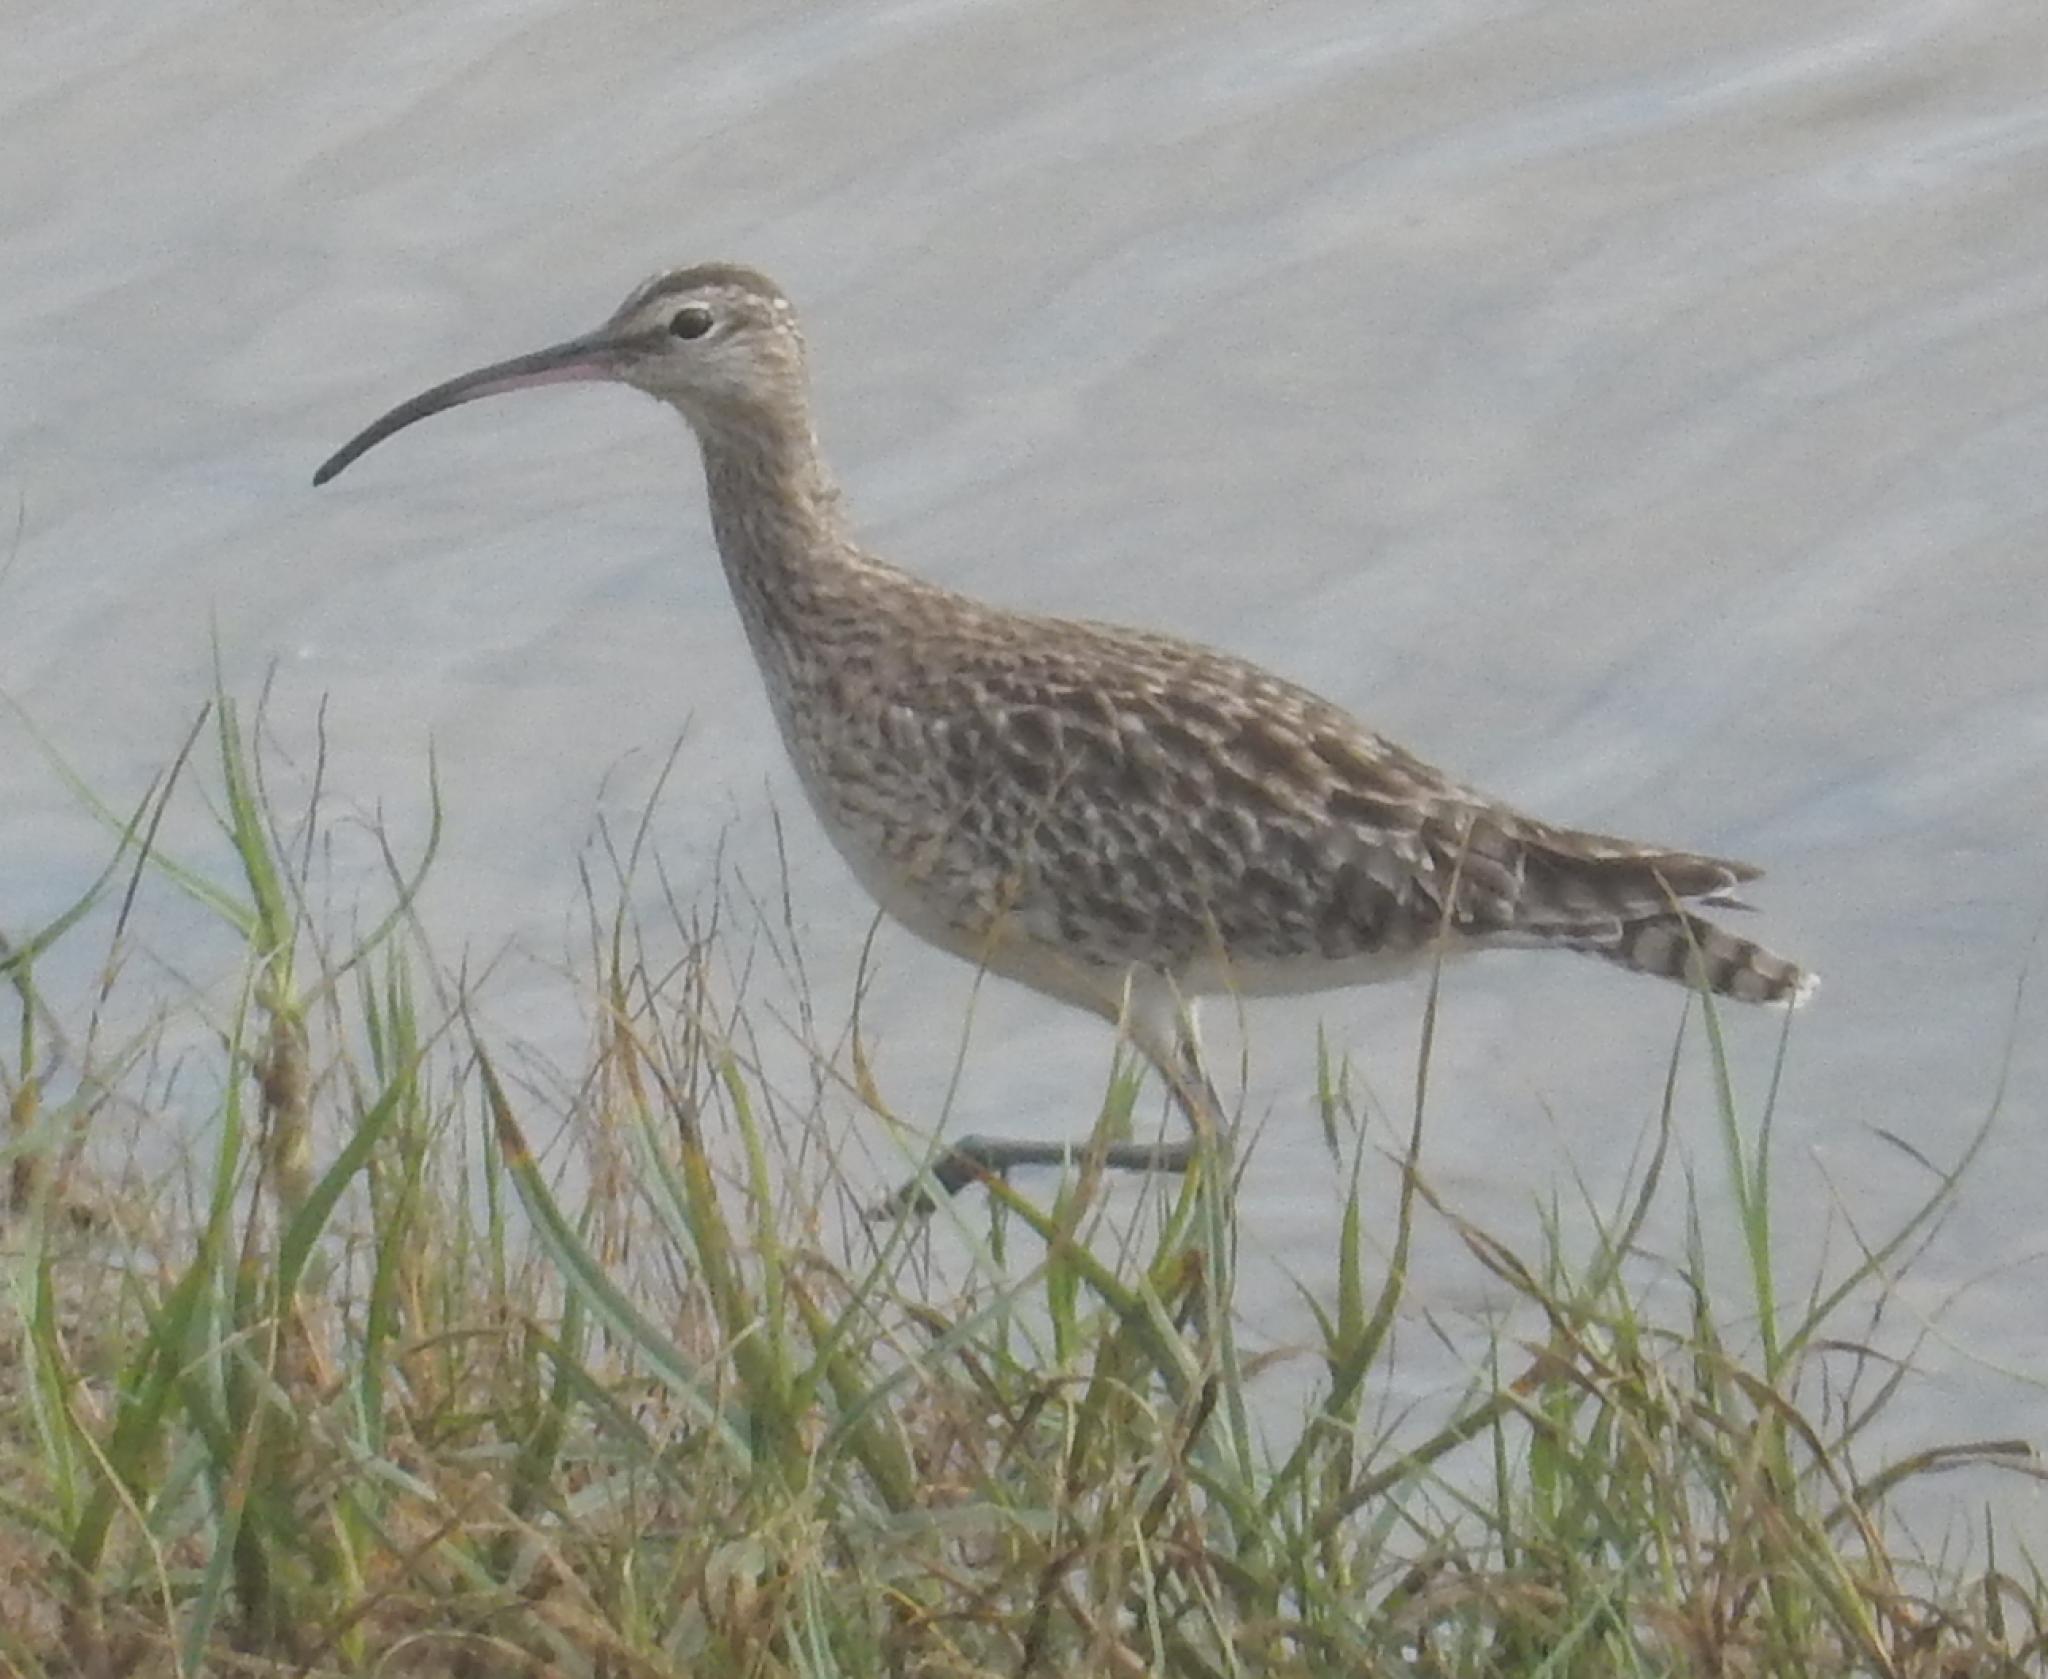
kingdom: Animalia
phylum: Chordata
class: Aves
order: Charadriiformes
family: Scolopacidae
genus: Numenius
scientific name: Numenius phaeopus
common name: Whimbrel
